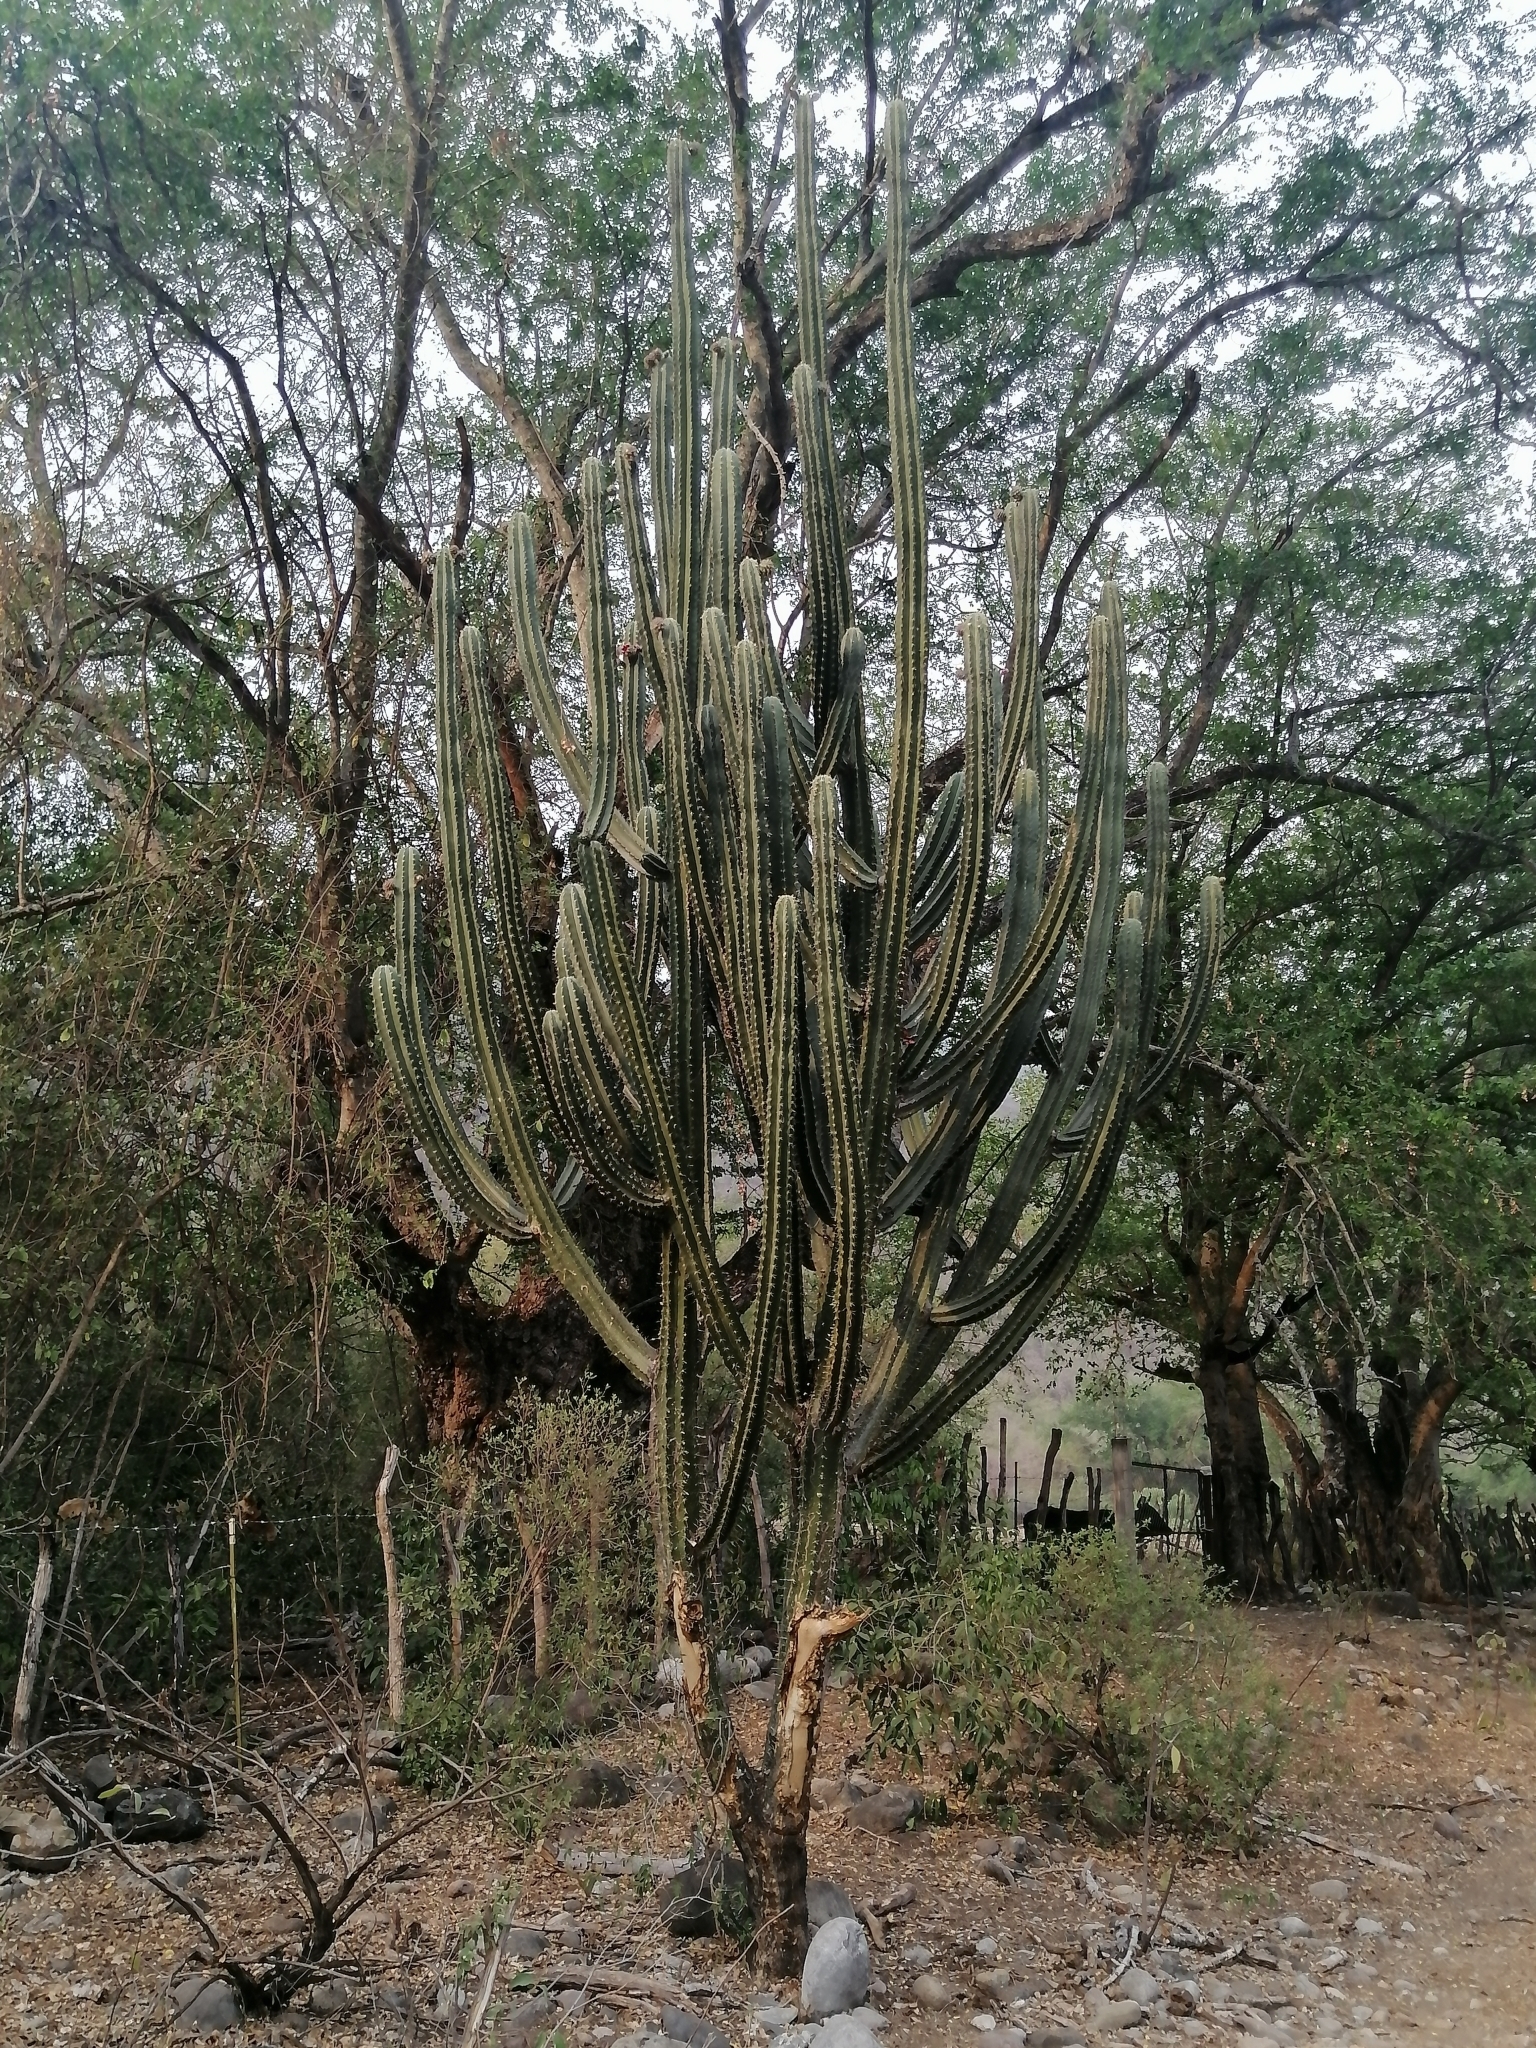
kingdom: Plantae
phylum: Tracheophyta
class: Magnoliopsida
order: Caryophyllales
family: Cactaceae
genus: Stenocereus
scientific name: Stenocereus huastecorum
